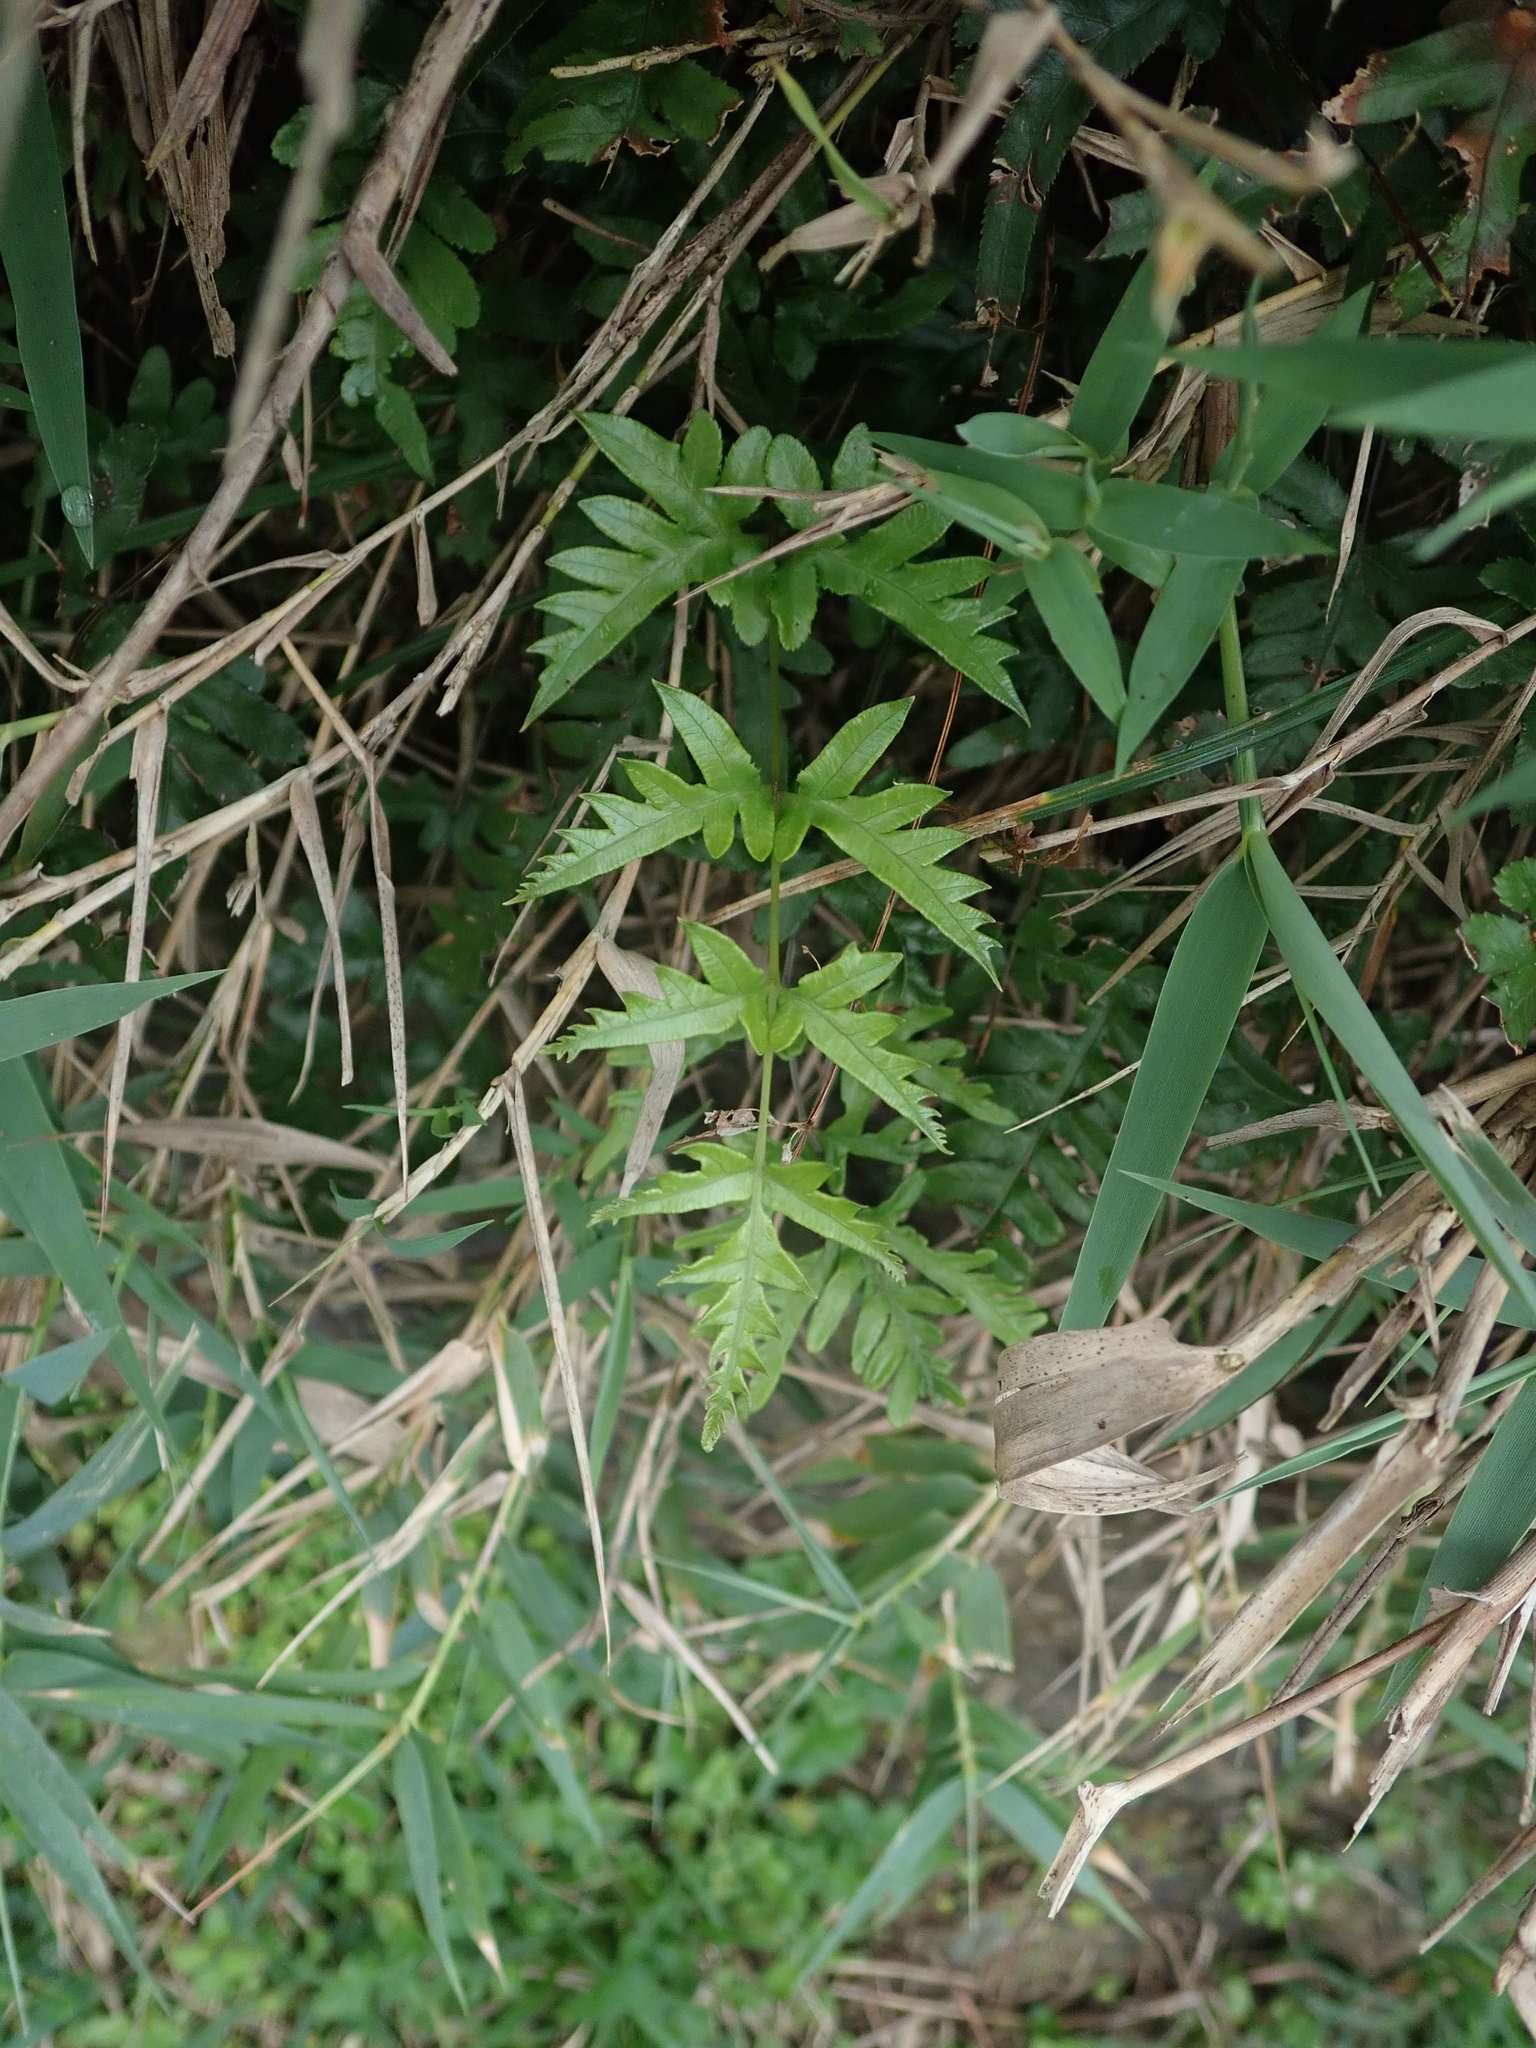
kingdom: Plantae
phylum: Tracheophyta
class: Polypodiopsida
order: Polypodiales
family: Pteridaceae
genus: Pteris
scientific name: Pteris semipinnata
